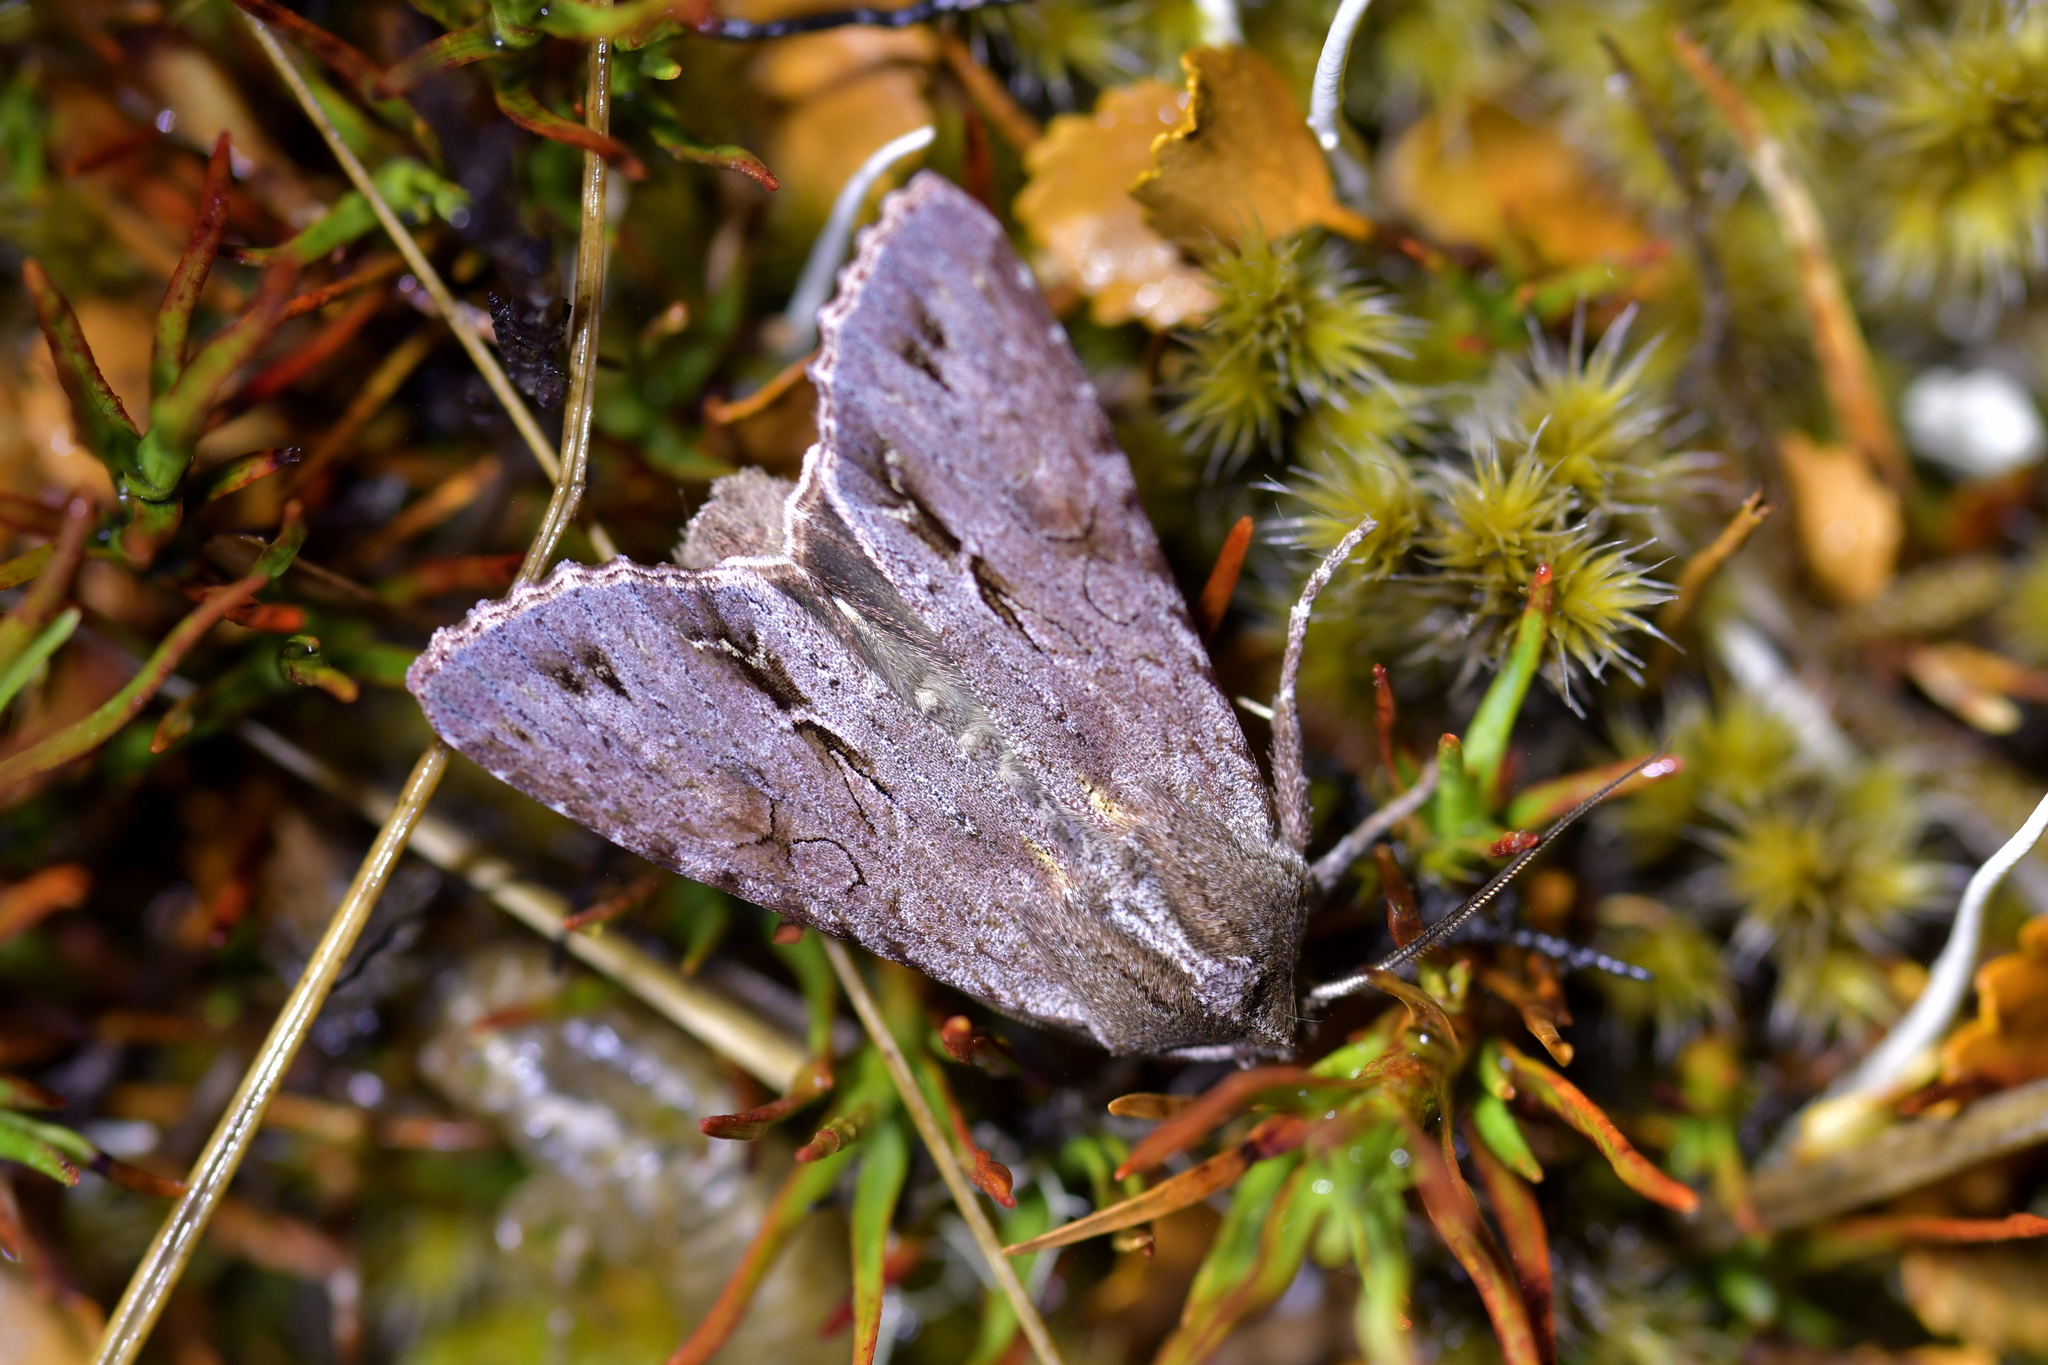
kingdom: Animalia
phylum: Arthropoda
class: Insecta
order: Lepidoptera
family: Noctuidae
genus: Ichneutica
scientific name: Ichneutica
